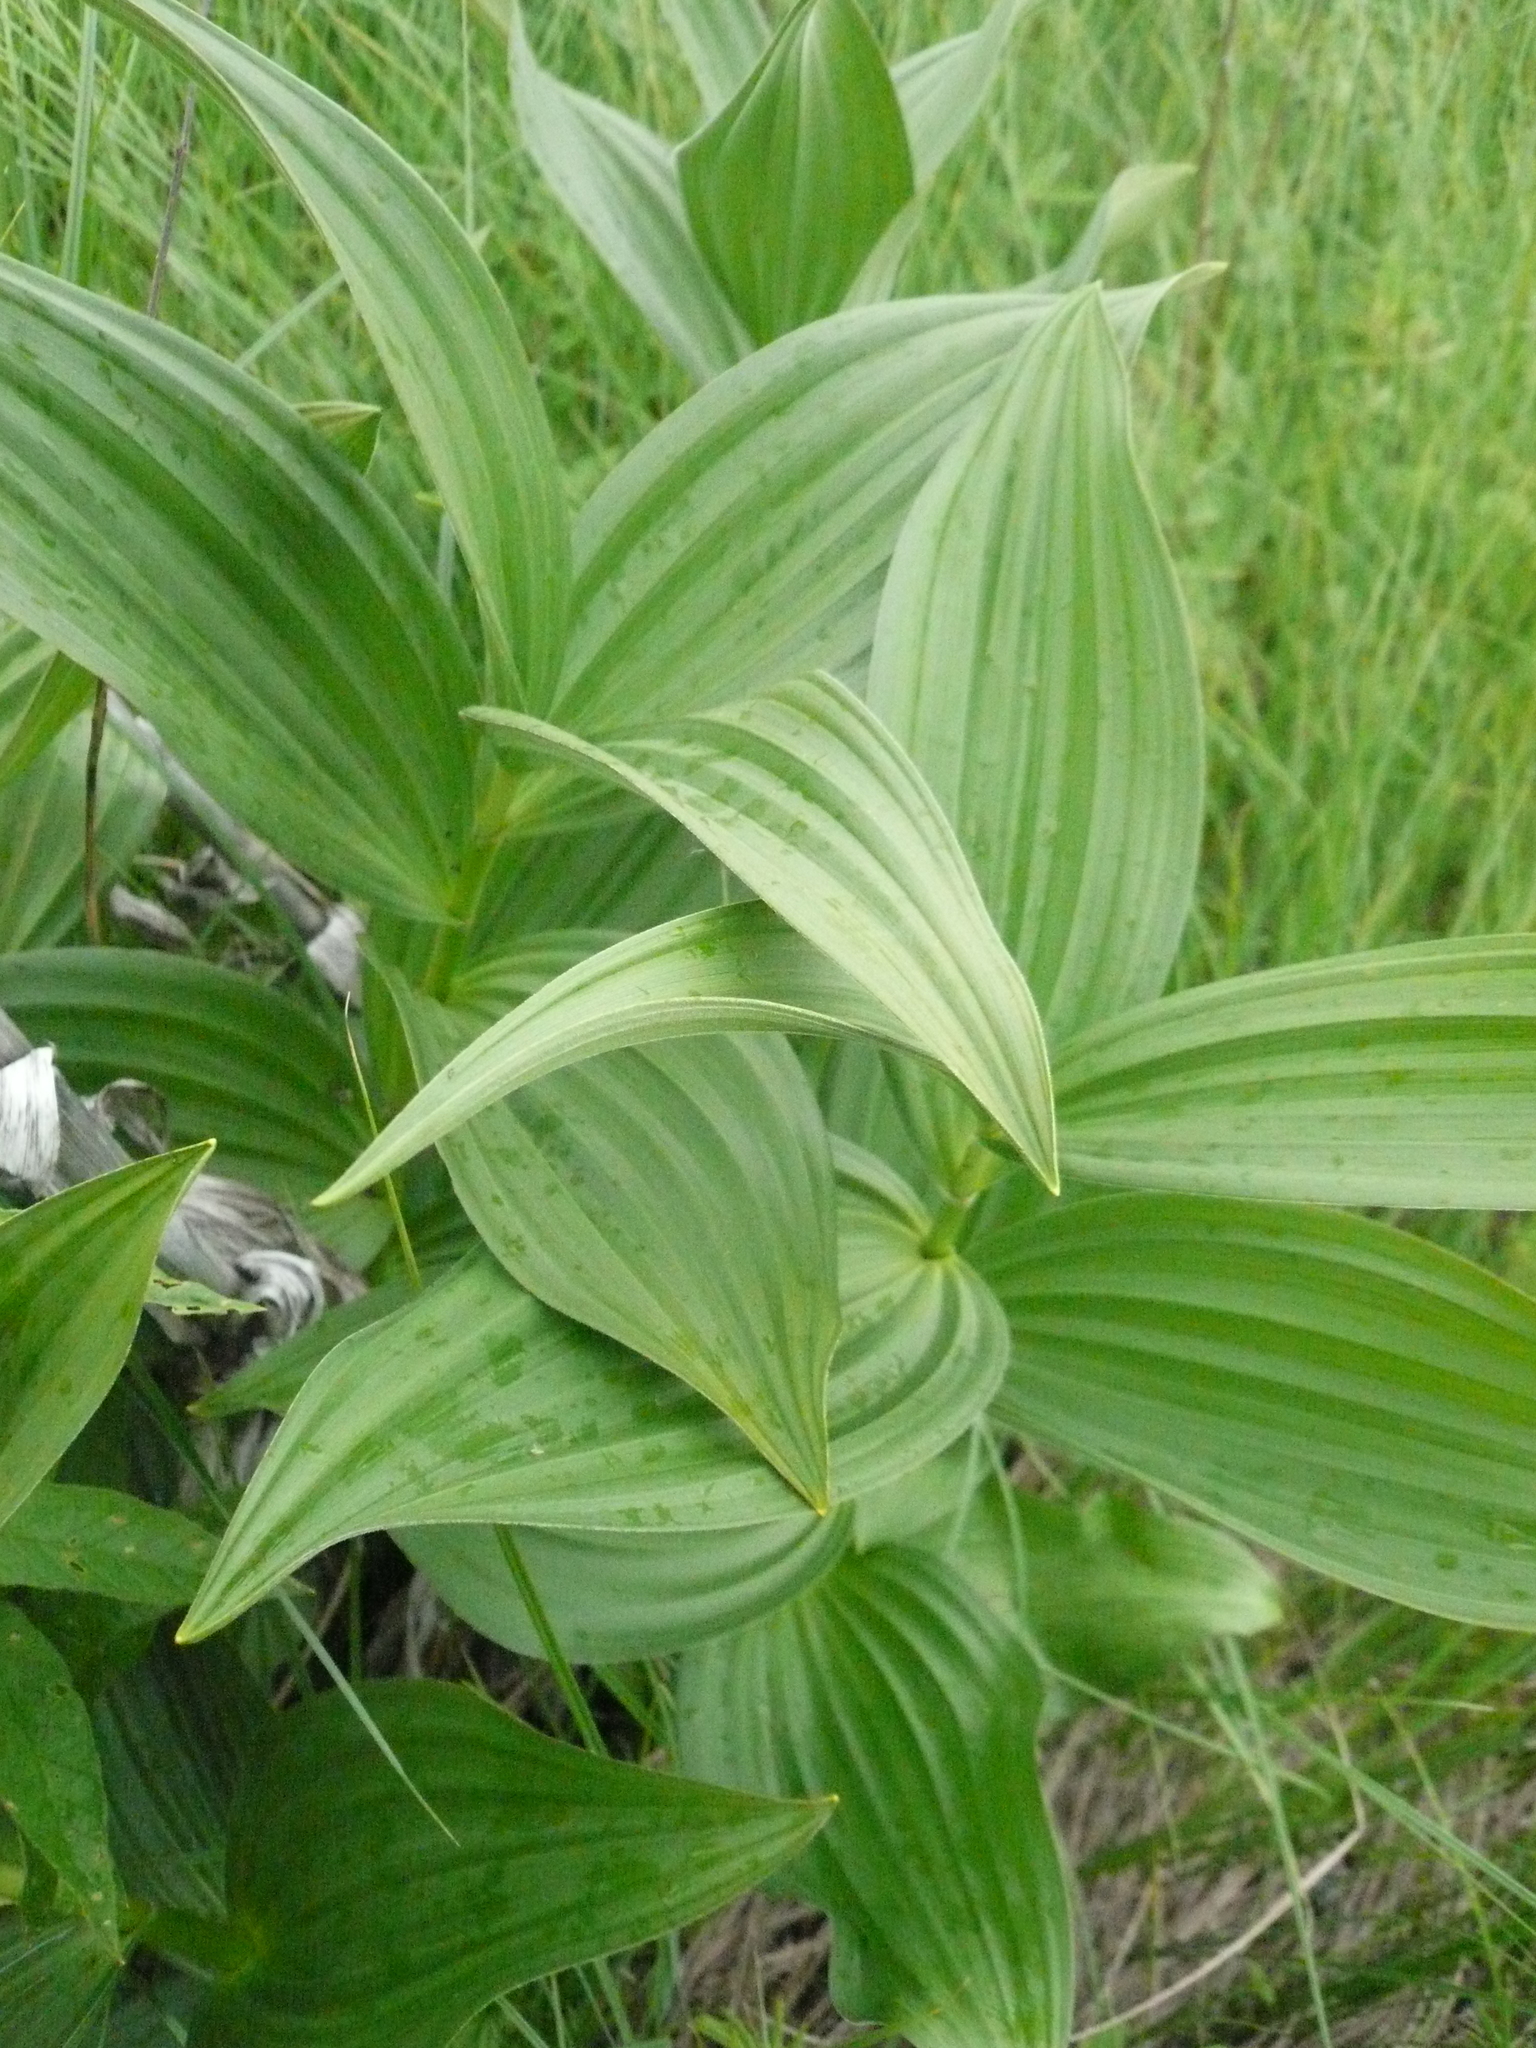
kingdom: Plantae
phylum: Tracheophyta
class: Liliopsida
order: Liliales
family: Melanthiaceae
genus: Veratrum
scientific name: Veratrum lobelianum
